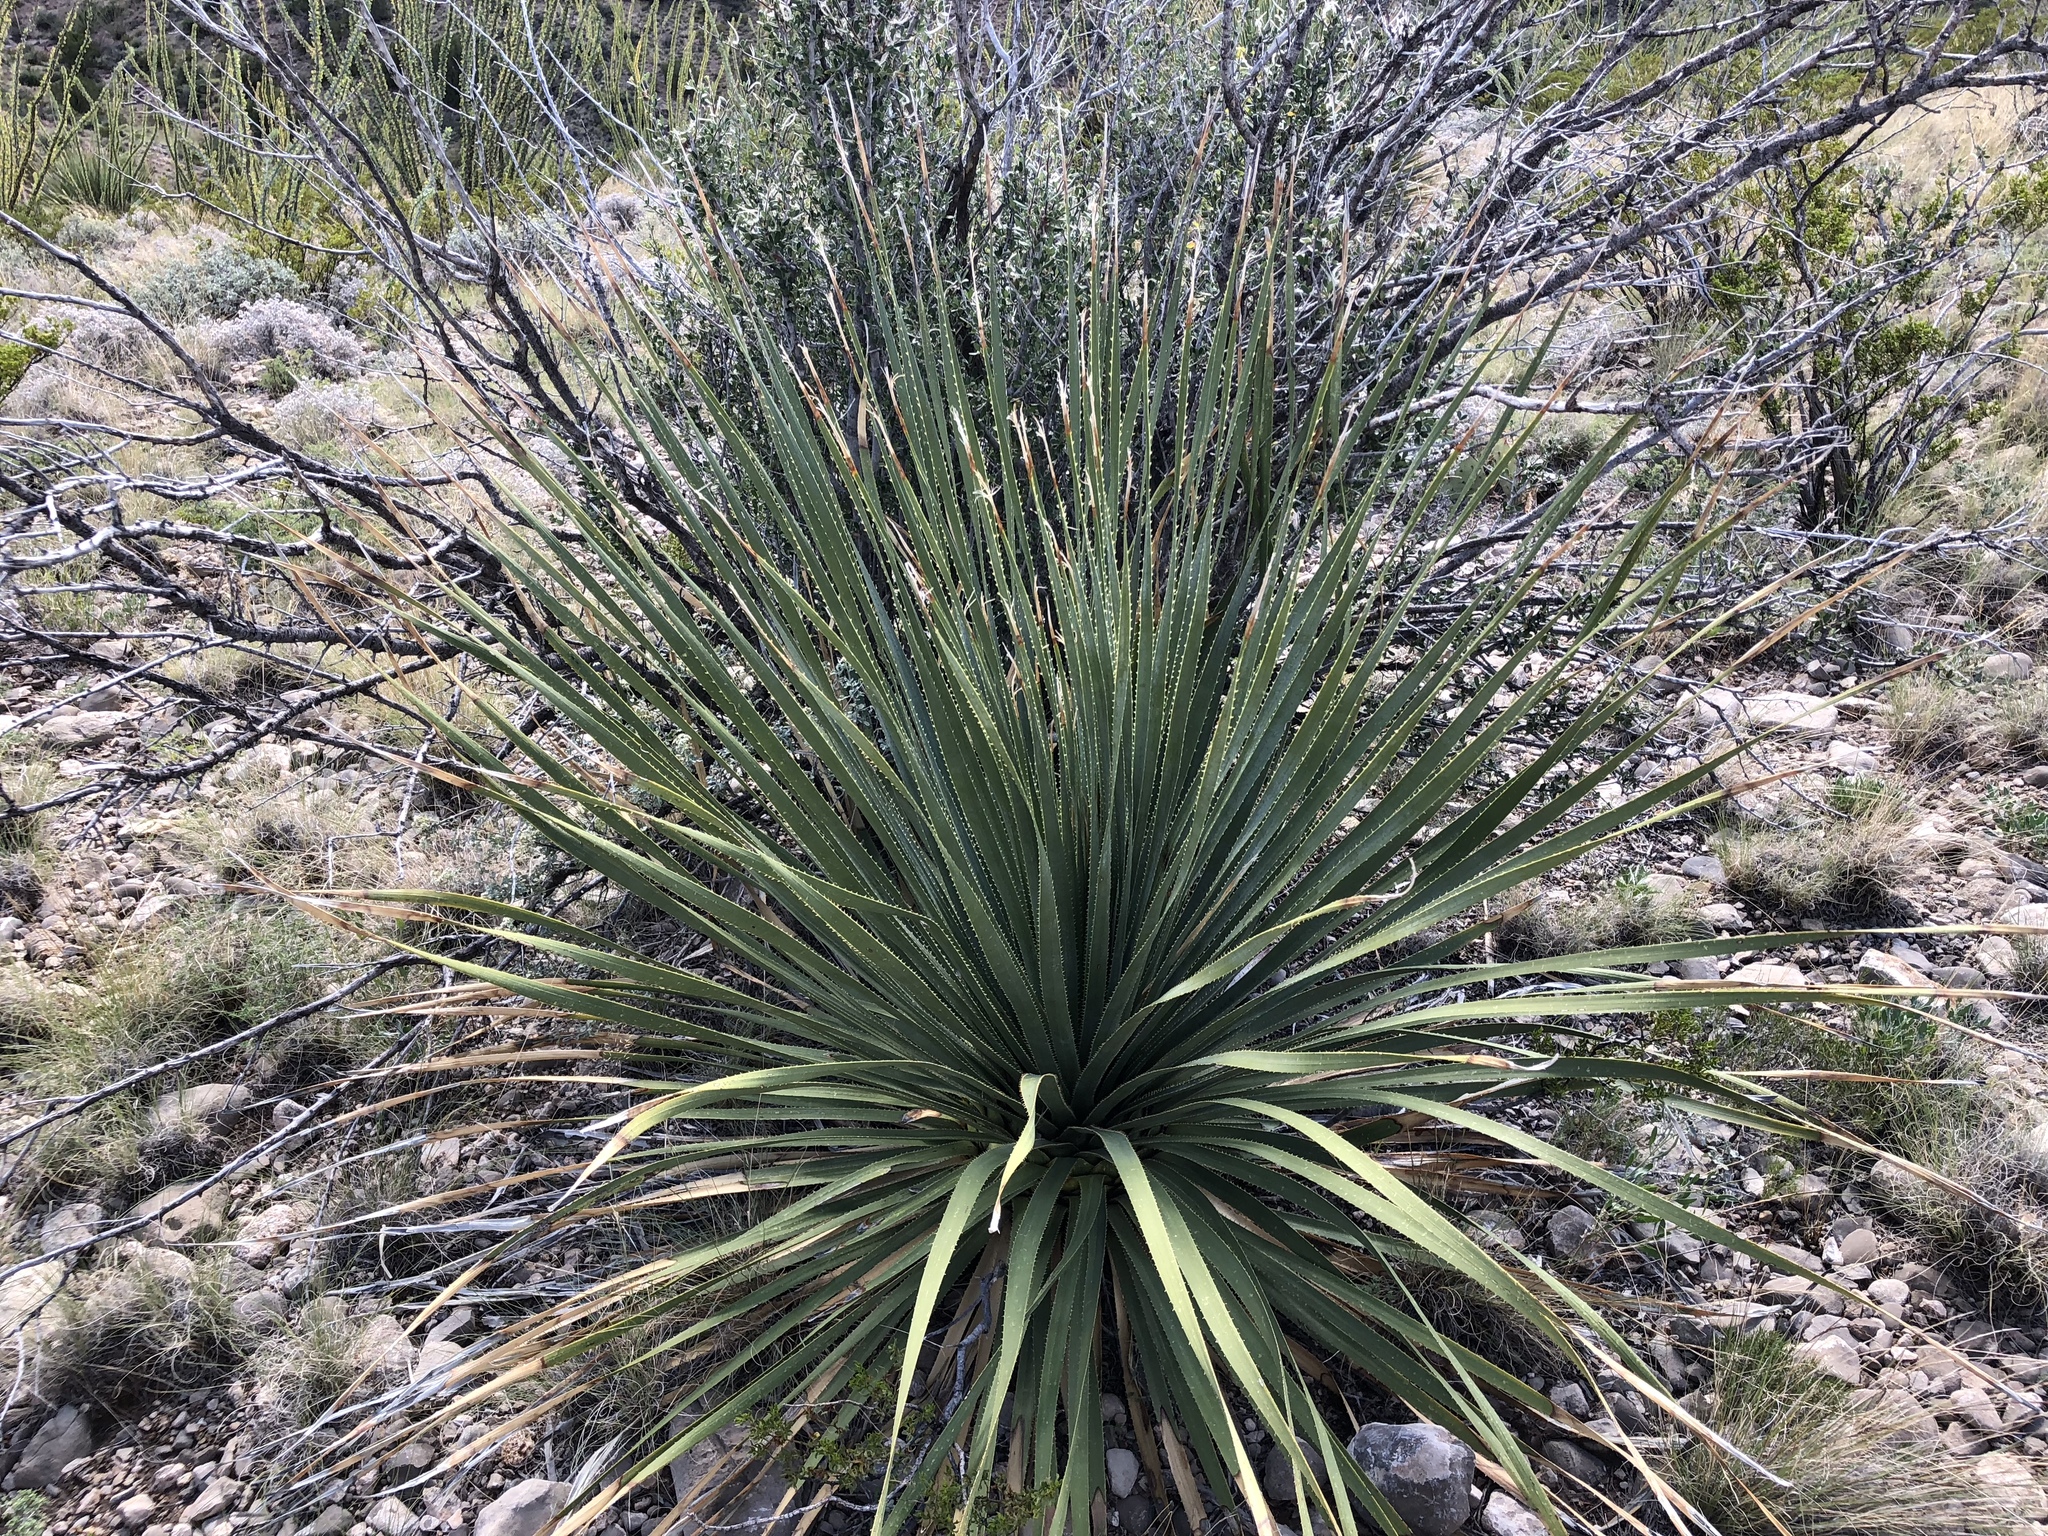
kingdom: Plantae
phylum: Tracheophyta
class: Liliopsida
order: Asparagales
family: Asparagaceae
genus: Dasylirion
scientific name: Dasylirion wheeleri
